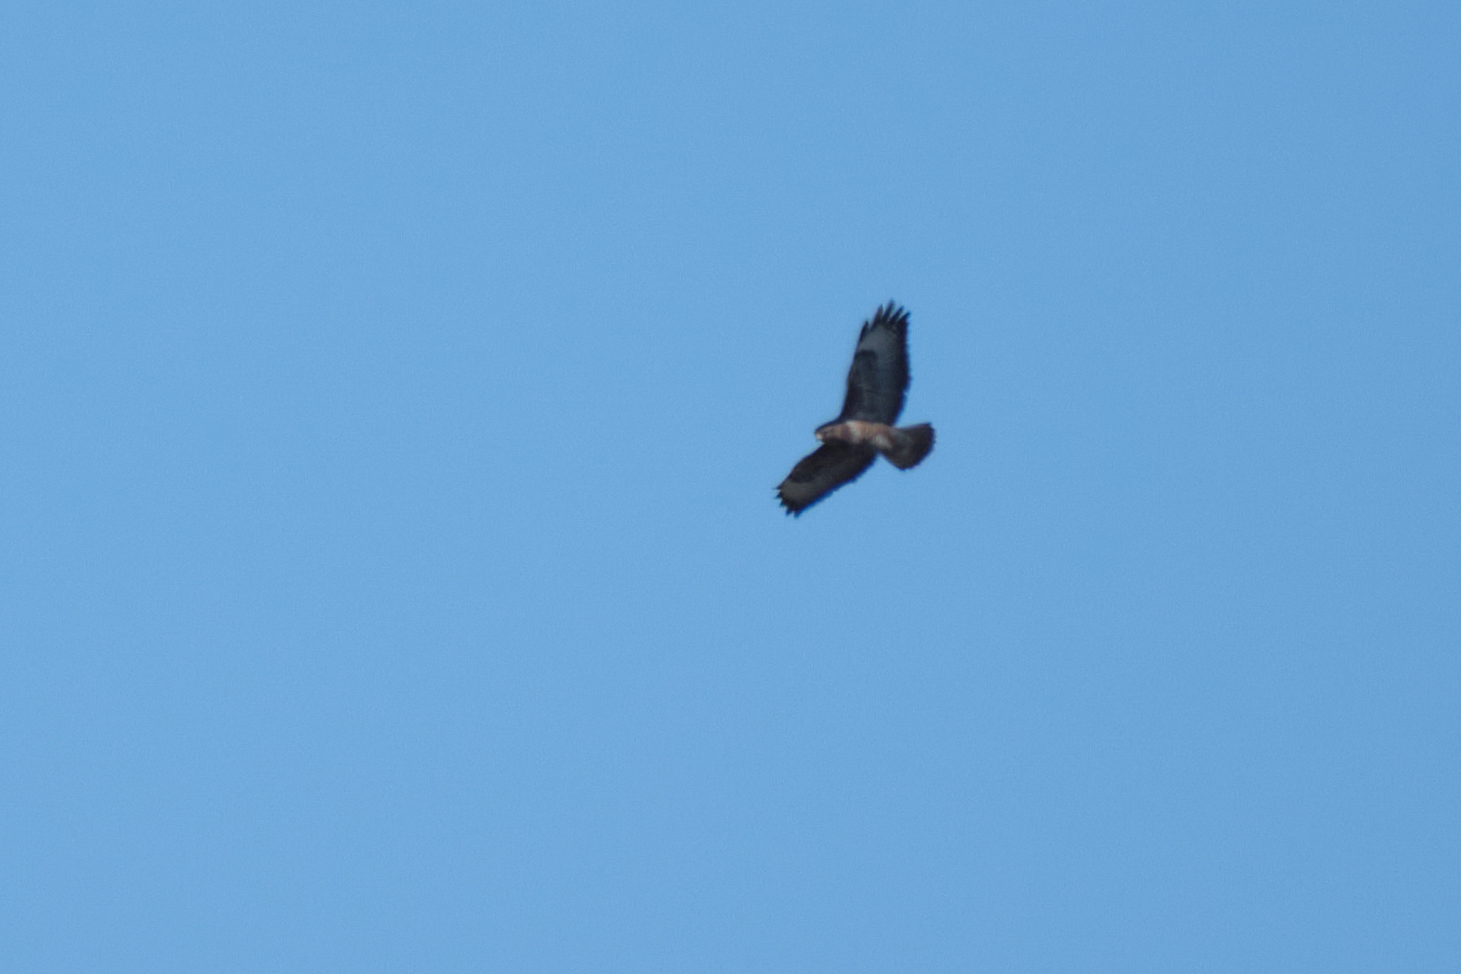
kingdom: Animalia
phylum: Chordata
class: Aves
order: Accipitriformes
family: Accipitridae
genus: Buteo
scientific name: Buteo buteo
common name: Common buzzard
